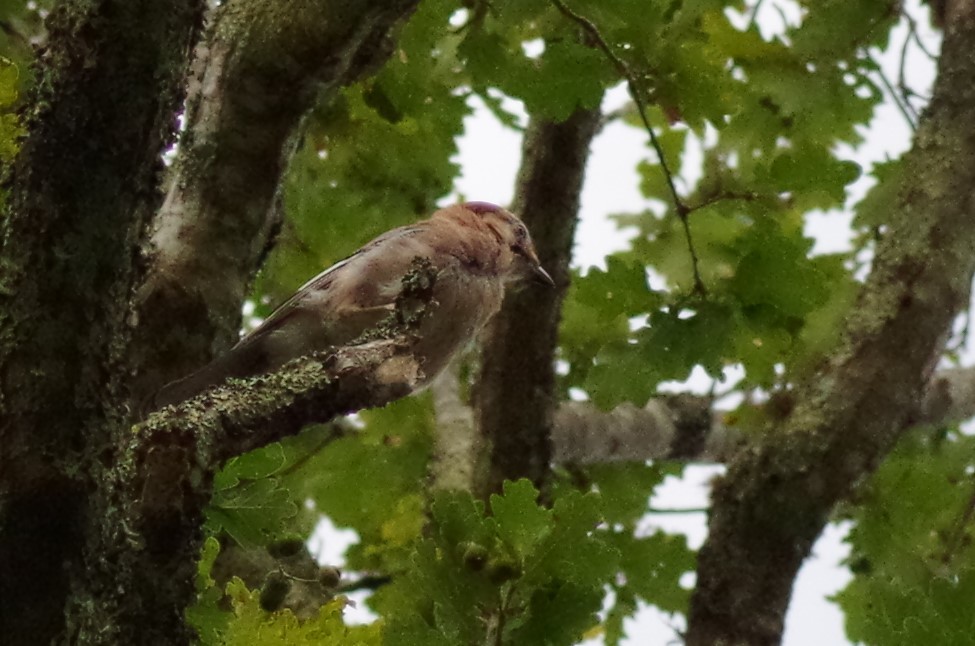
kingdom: Animalia
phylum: Chordata
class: Aves
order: Passeriformes
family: Corvidae
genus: Garrulus
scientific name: Garrulus glandarius
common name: Eurasian jay
